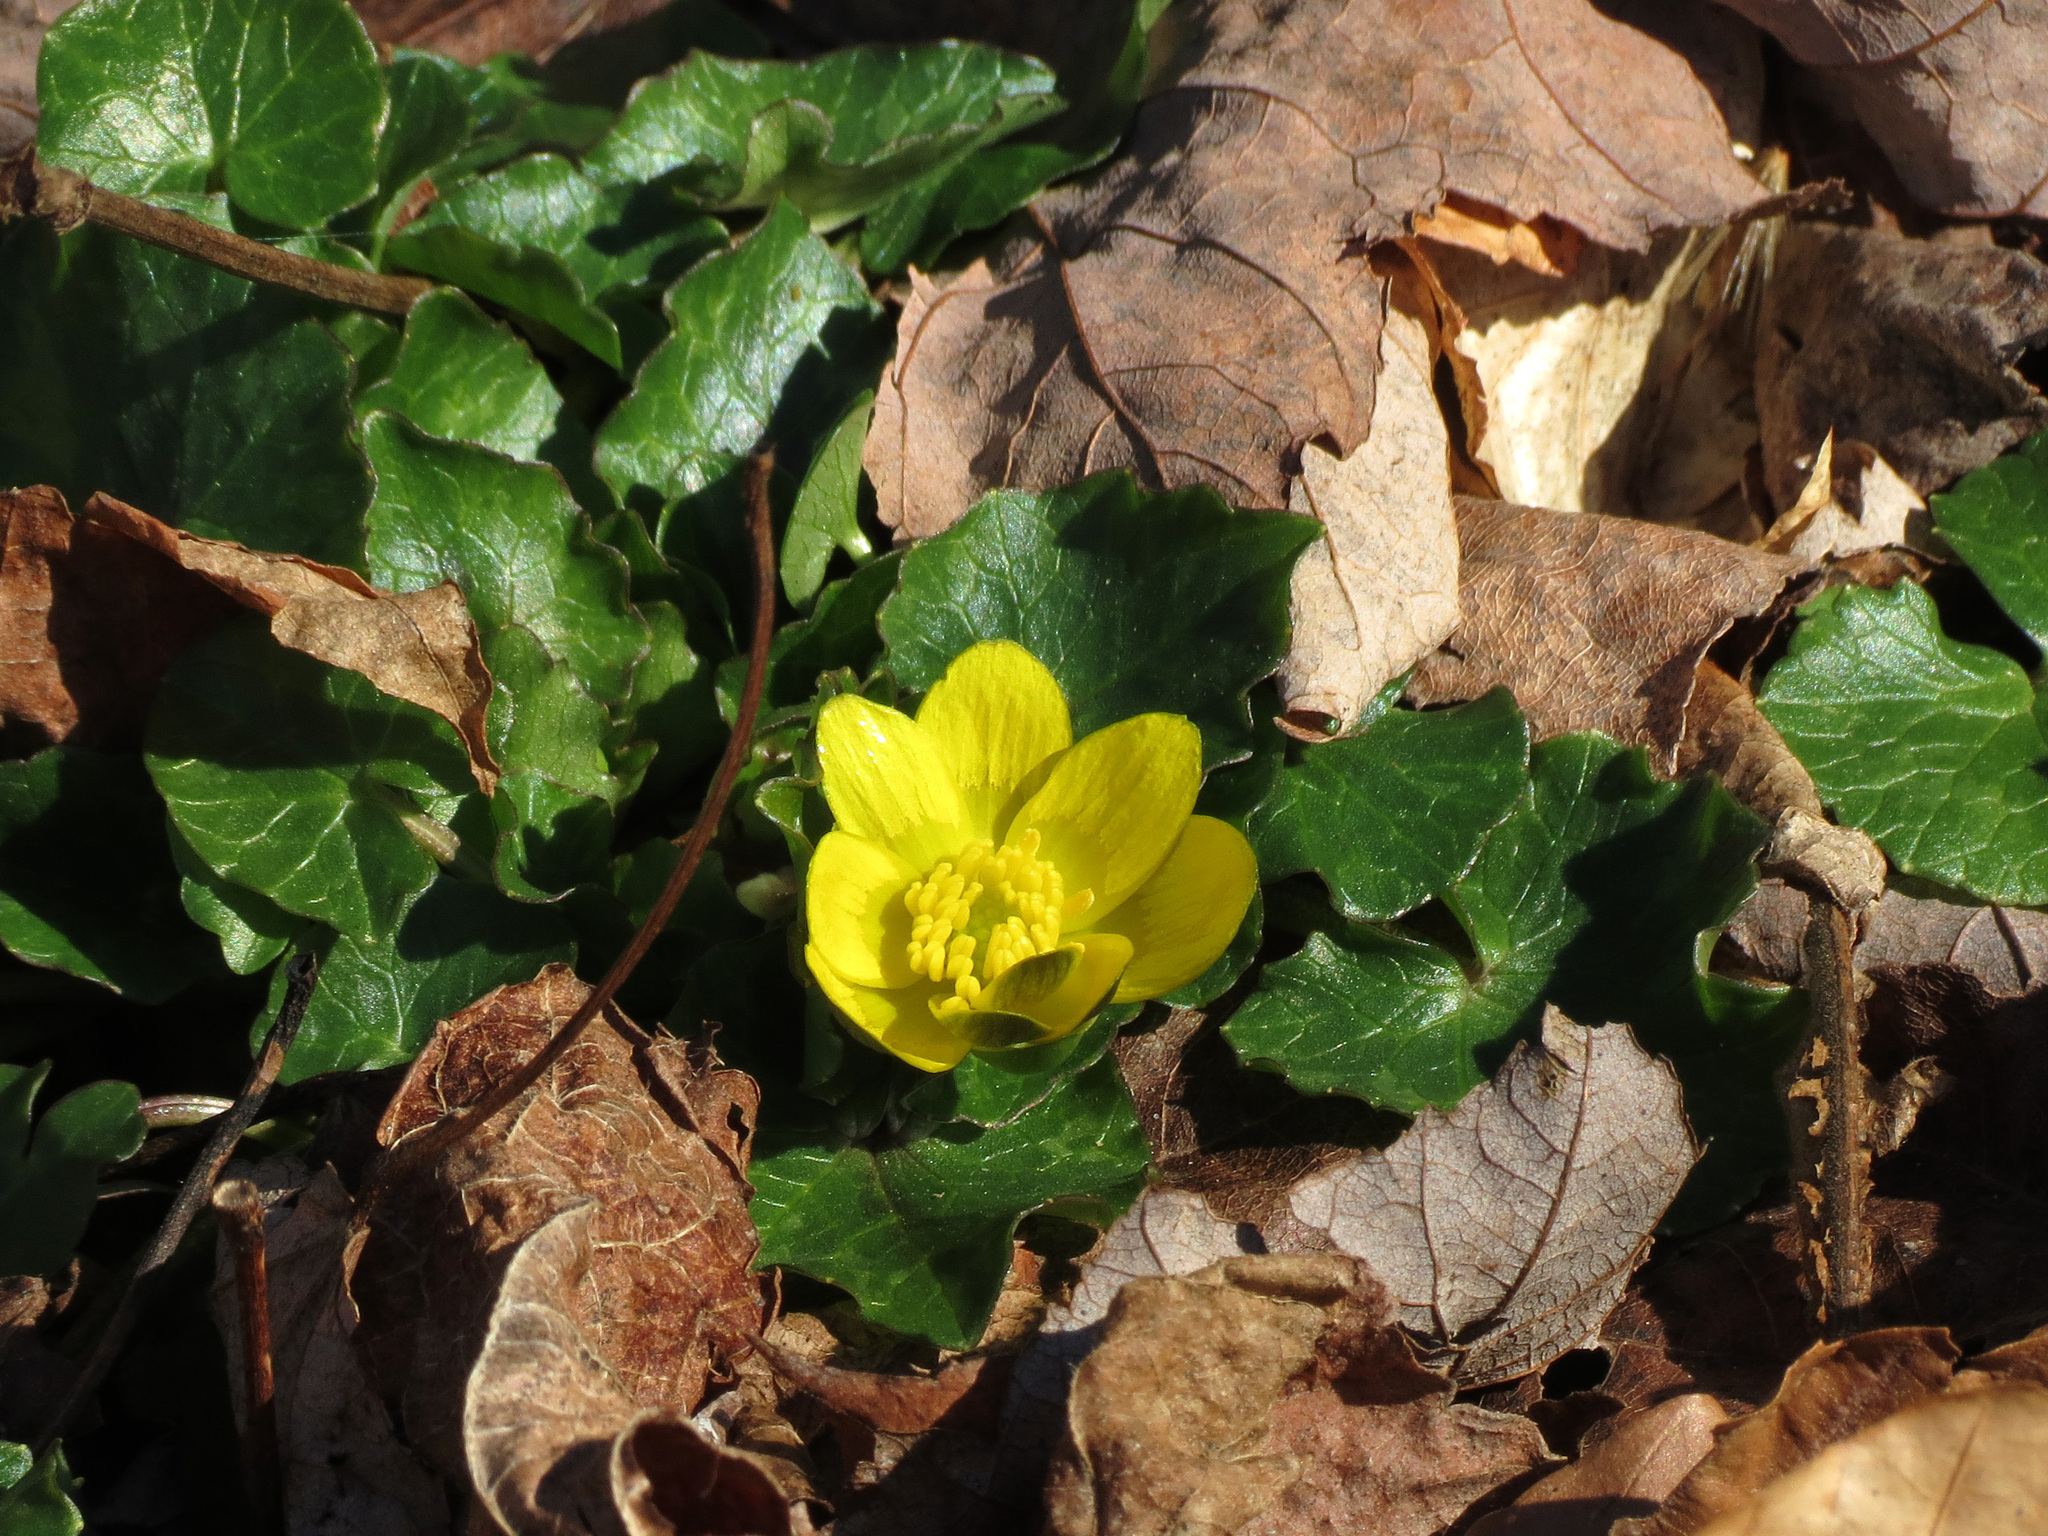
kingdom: Plantae
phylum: Tracheophyta
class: Magnoliopsida
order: Ranunculales
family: Ranunculaceae
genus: Ficaria
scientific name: Ficaria verna
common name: Lesser celandine
